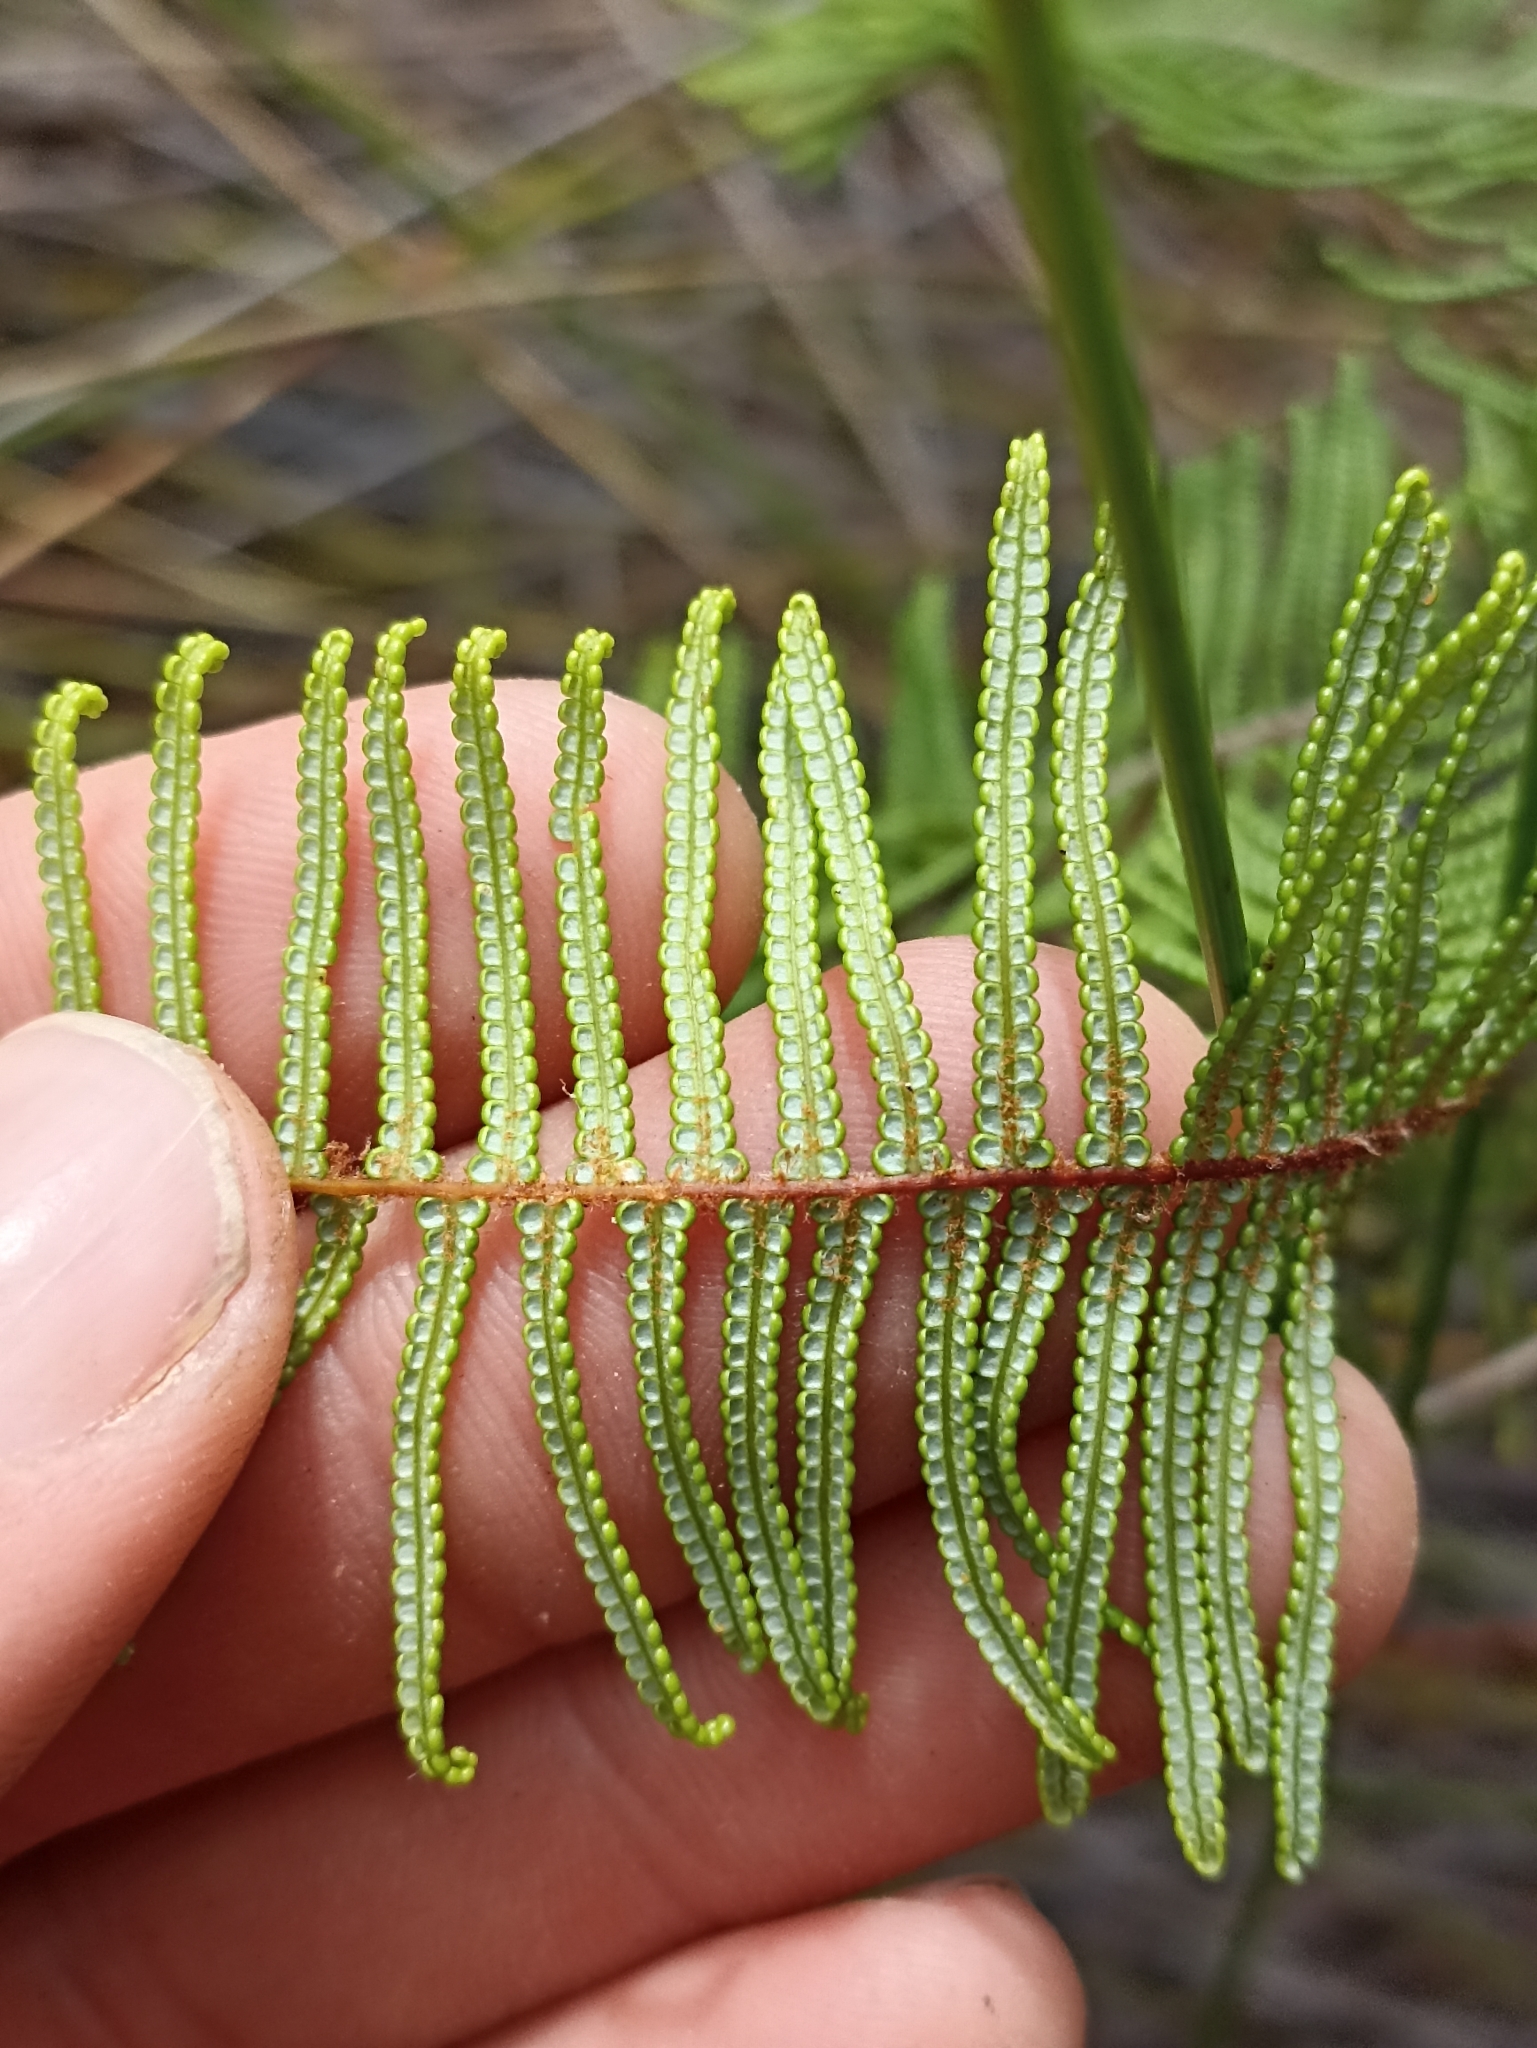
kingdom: Plantae
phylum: Tracheophyta
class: Polypodiopsida
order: Gleicheniales
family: Gleicheniaceae
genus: Gleichenia
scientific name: Gleichenia dicarpa
